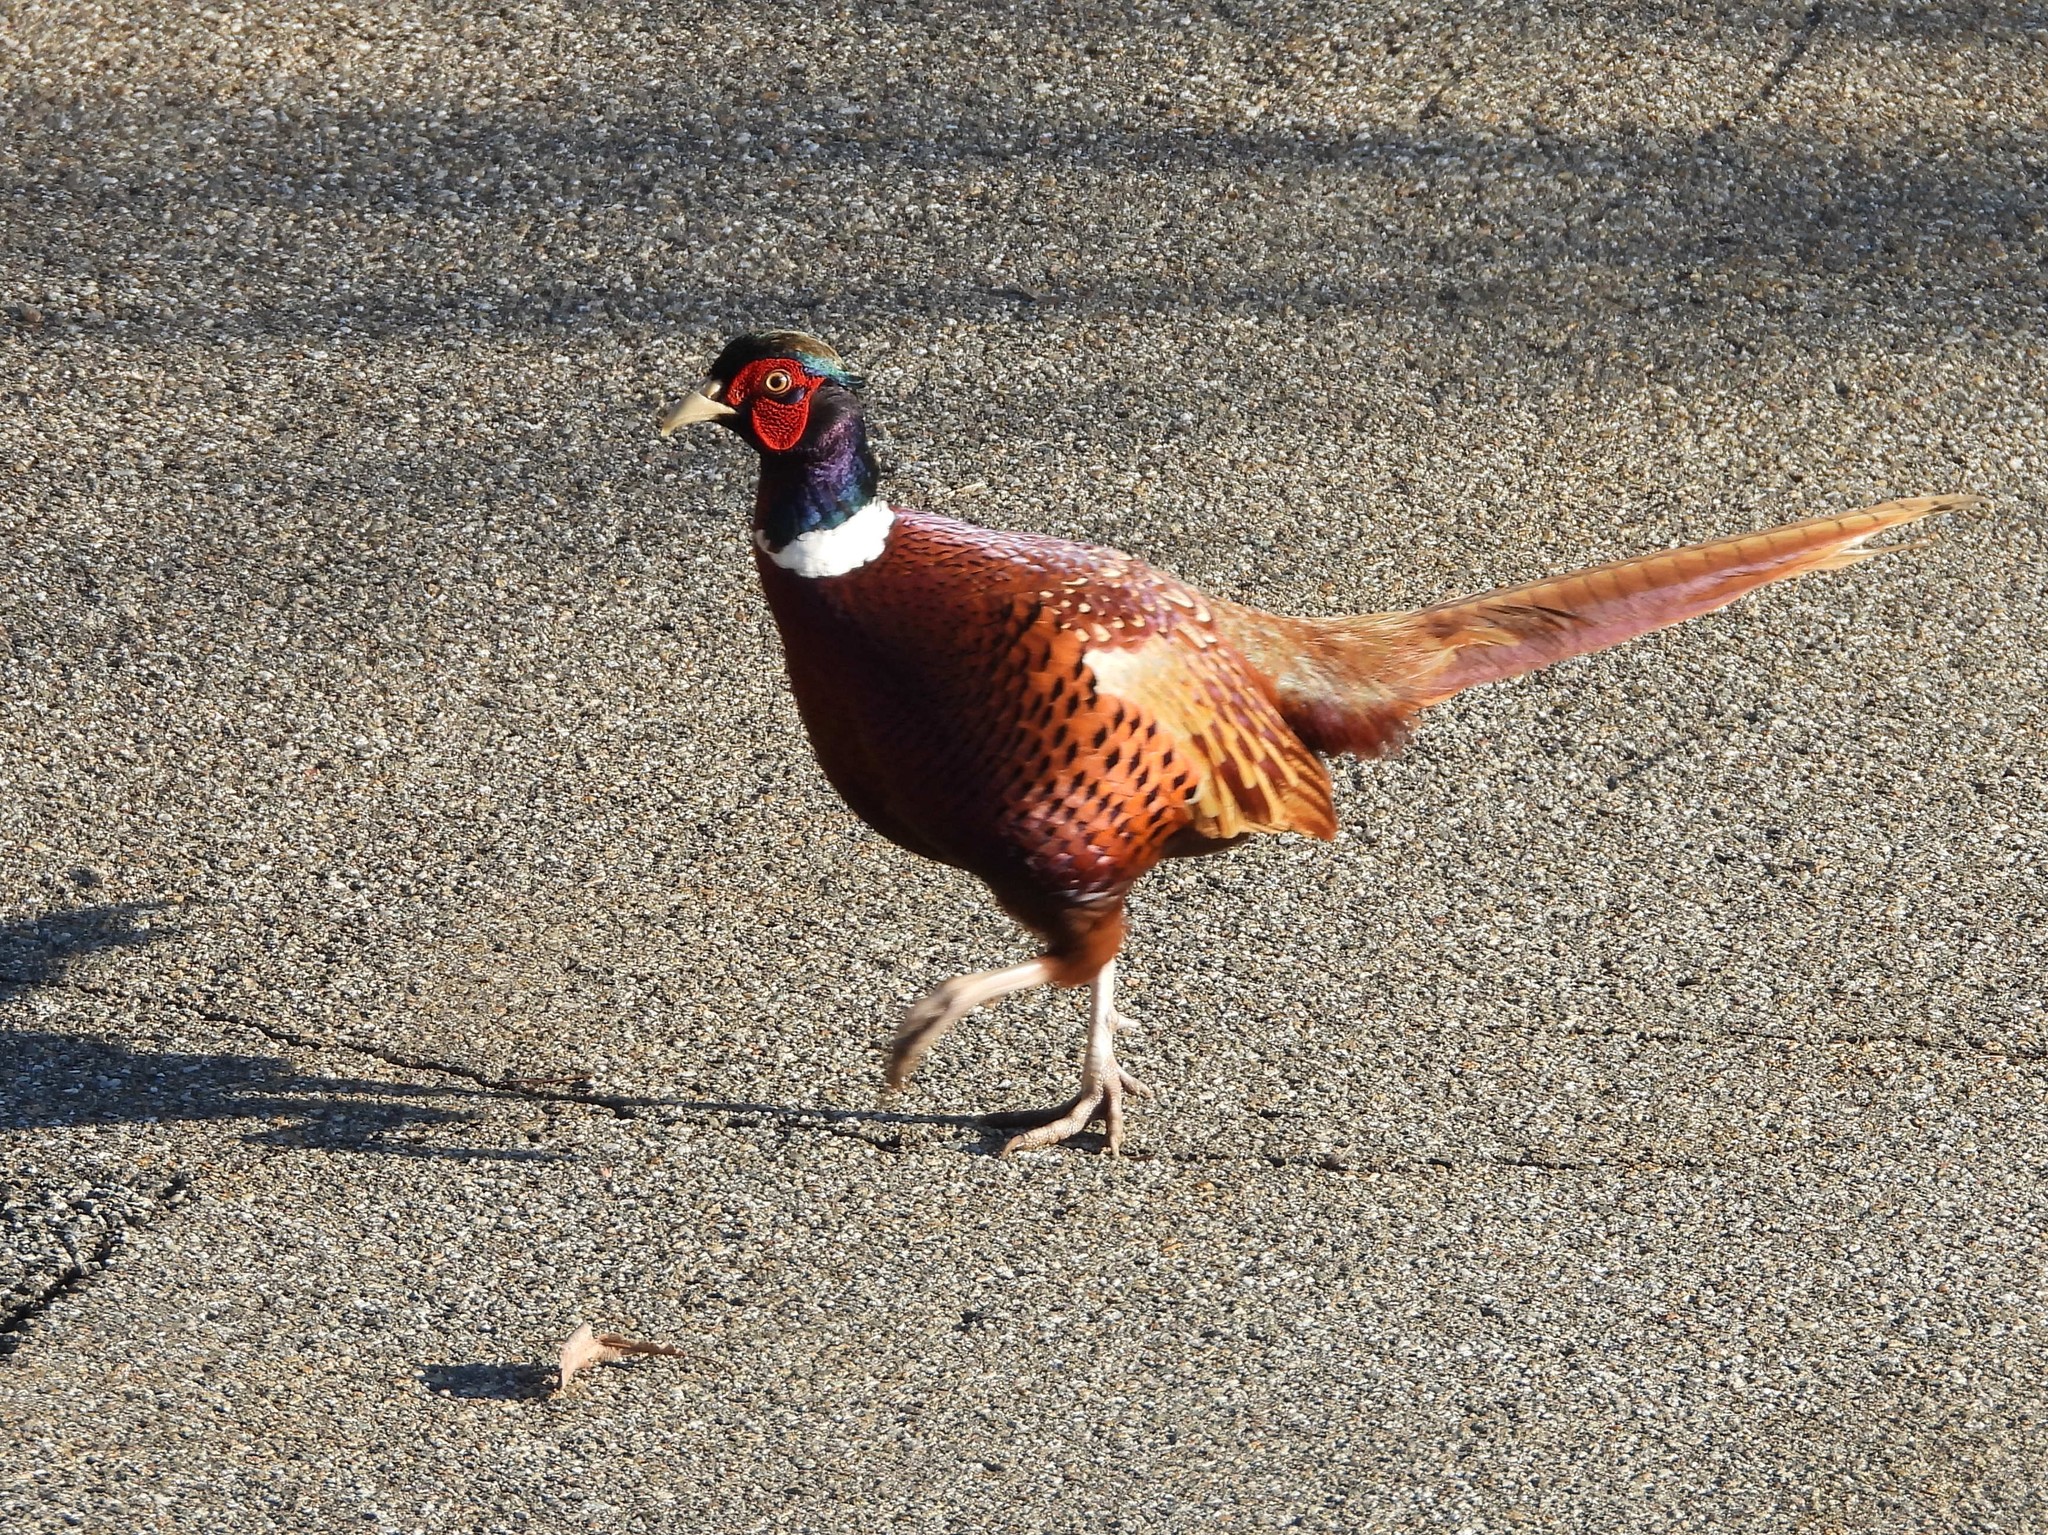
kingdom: Animalia
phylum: Chordata
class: Aves
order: Galliformes
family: Phasianidae
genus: Phasianus
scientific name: Phasianus colchicus
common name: Common pheasant
